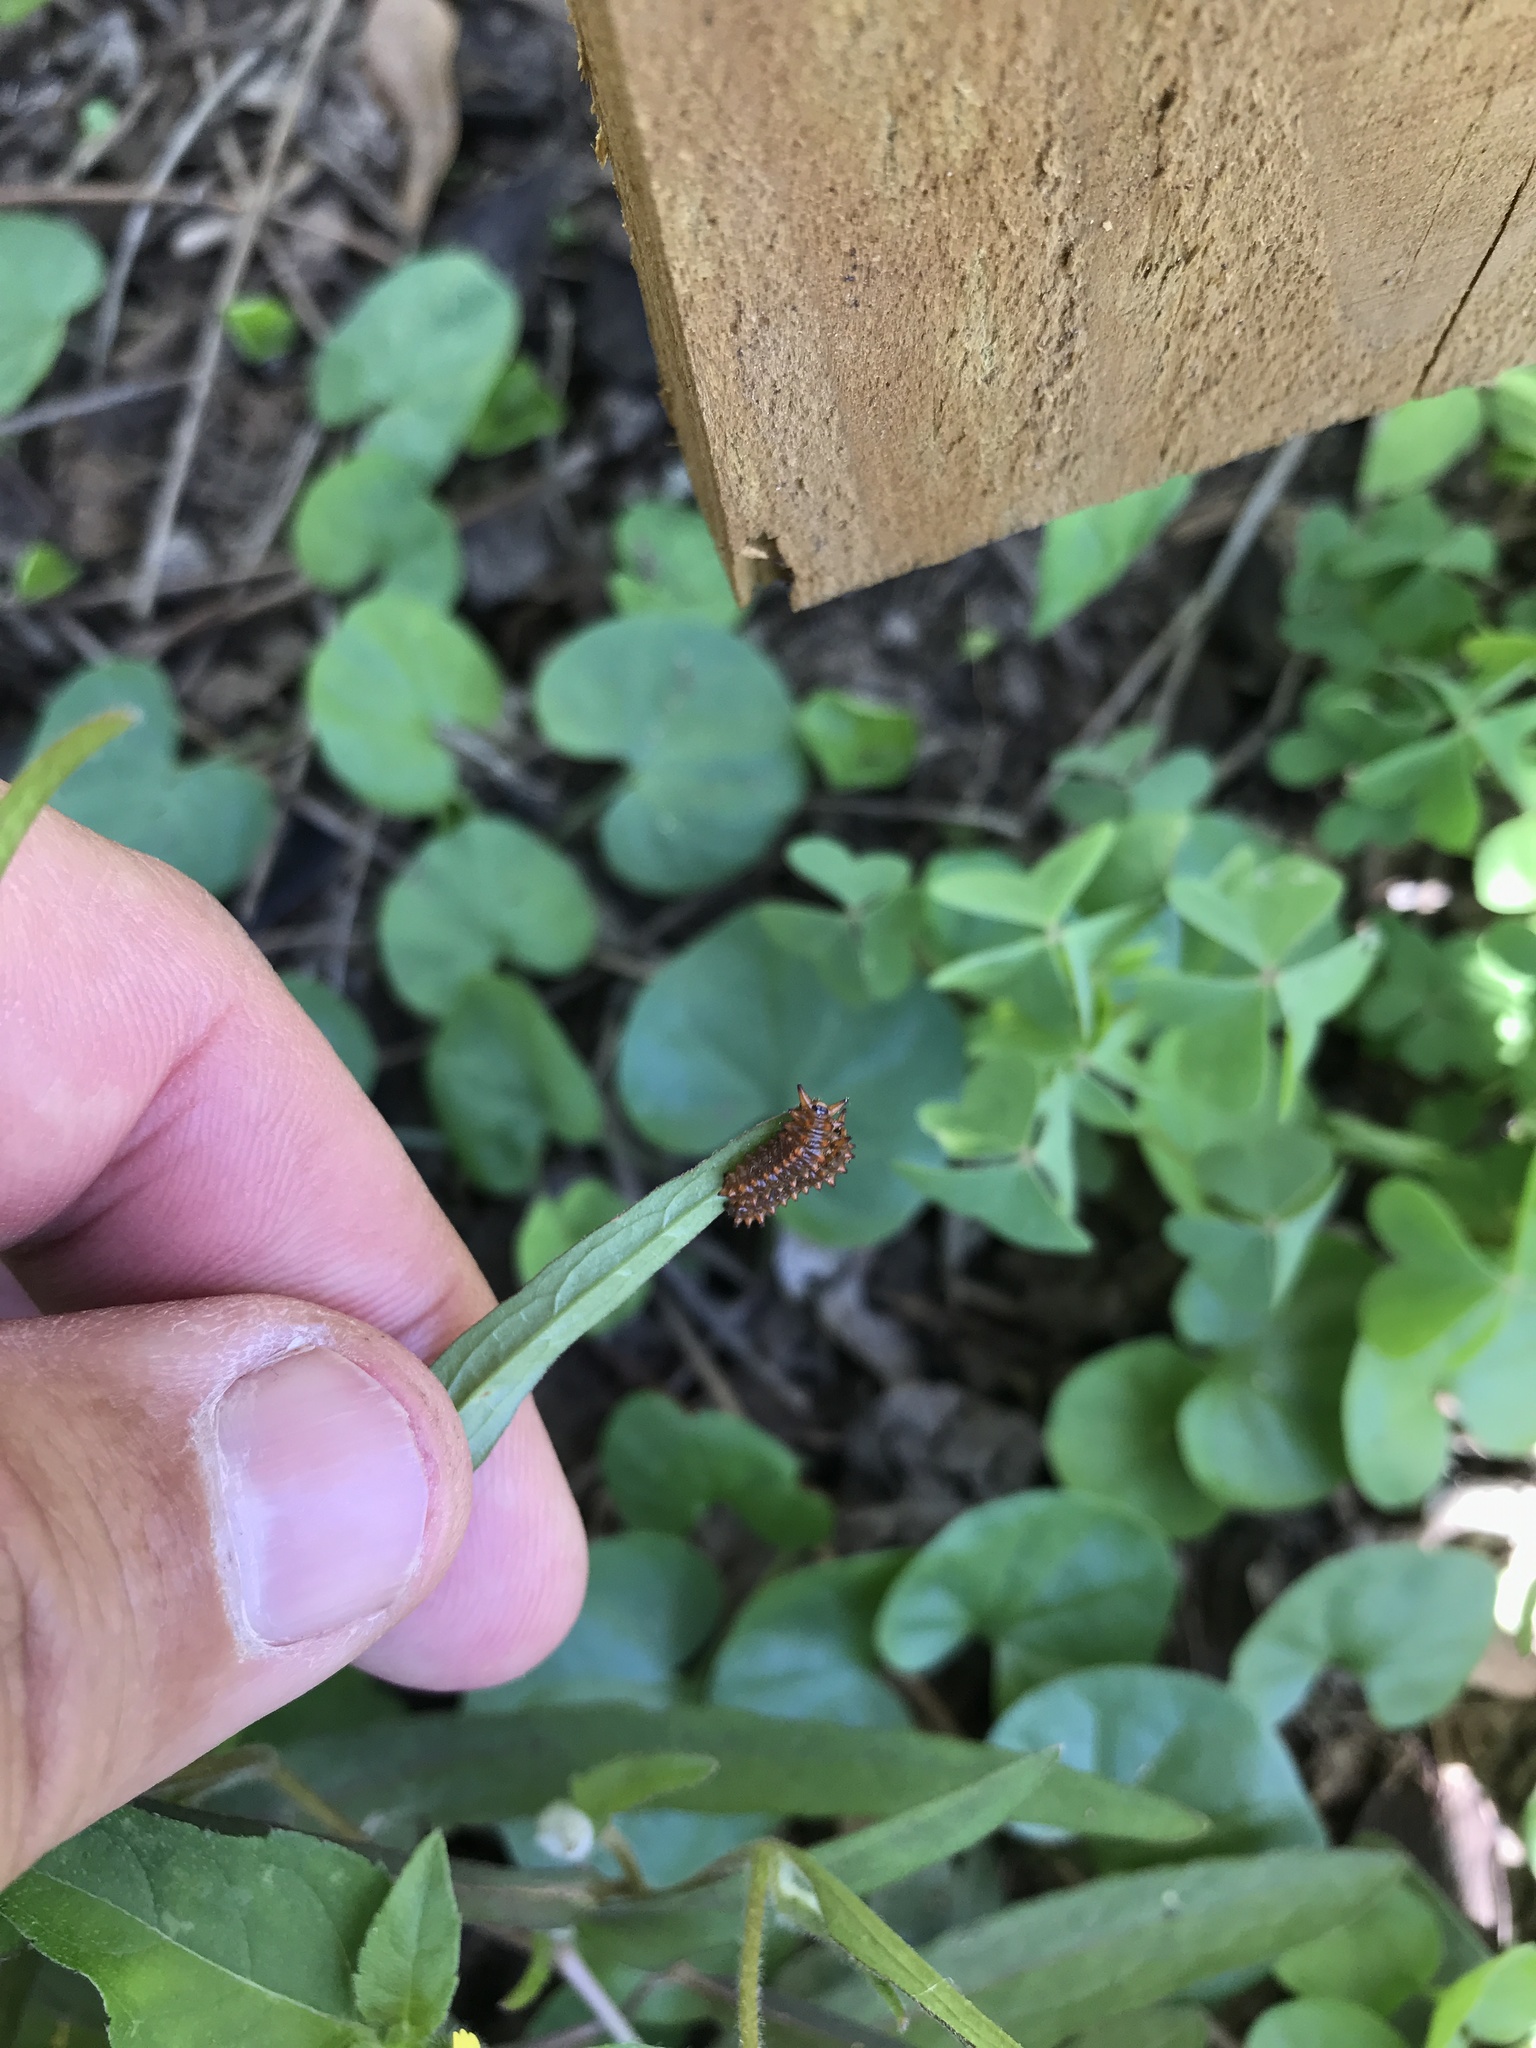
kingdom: Animalia
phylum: Arthropoda
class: Insecta
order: Lepidoptera
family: Papilionidae
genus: Battus
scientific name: Battus philenor
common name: Pipevine swallowtail
